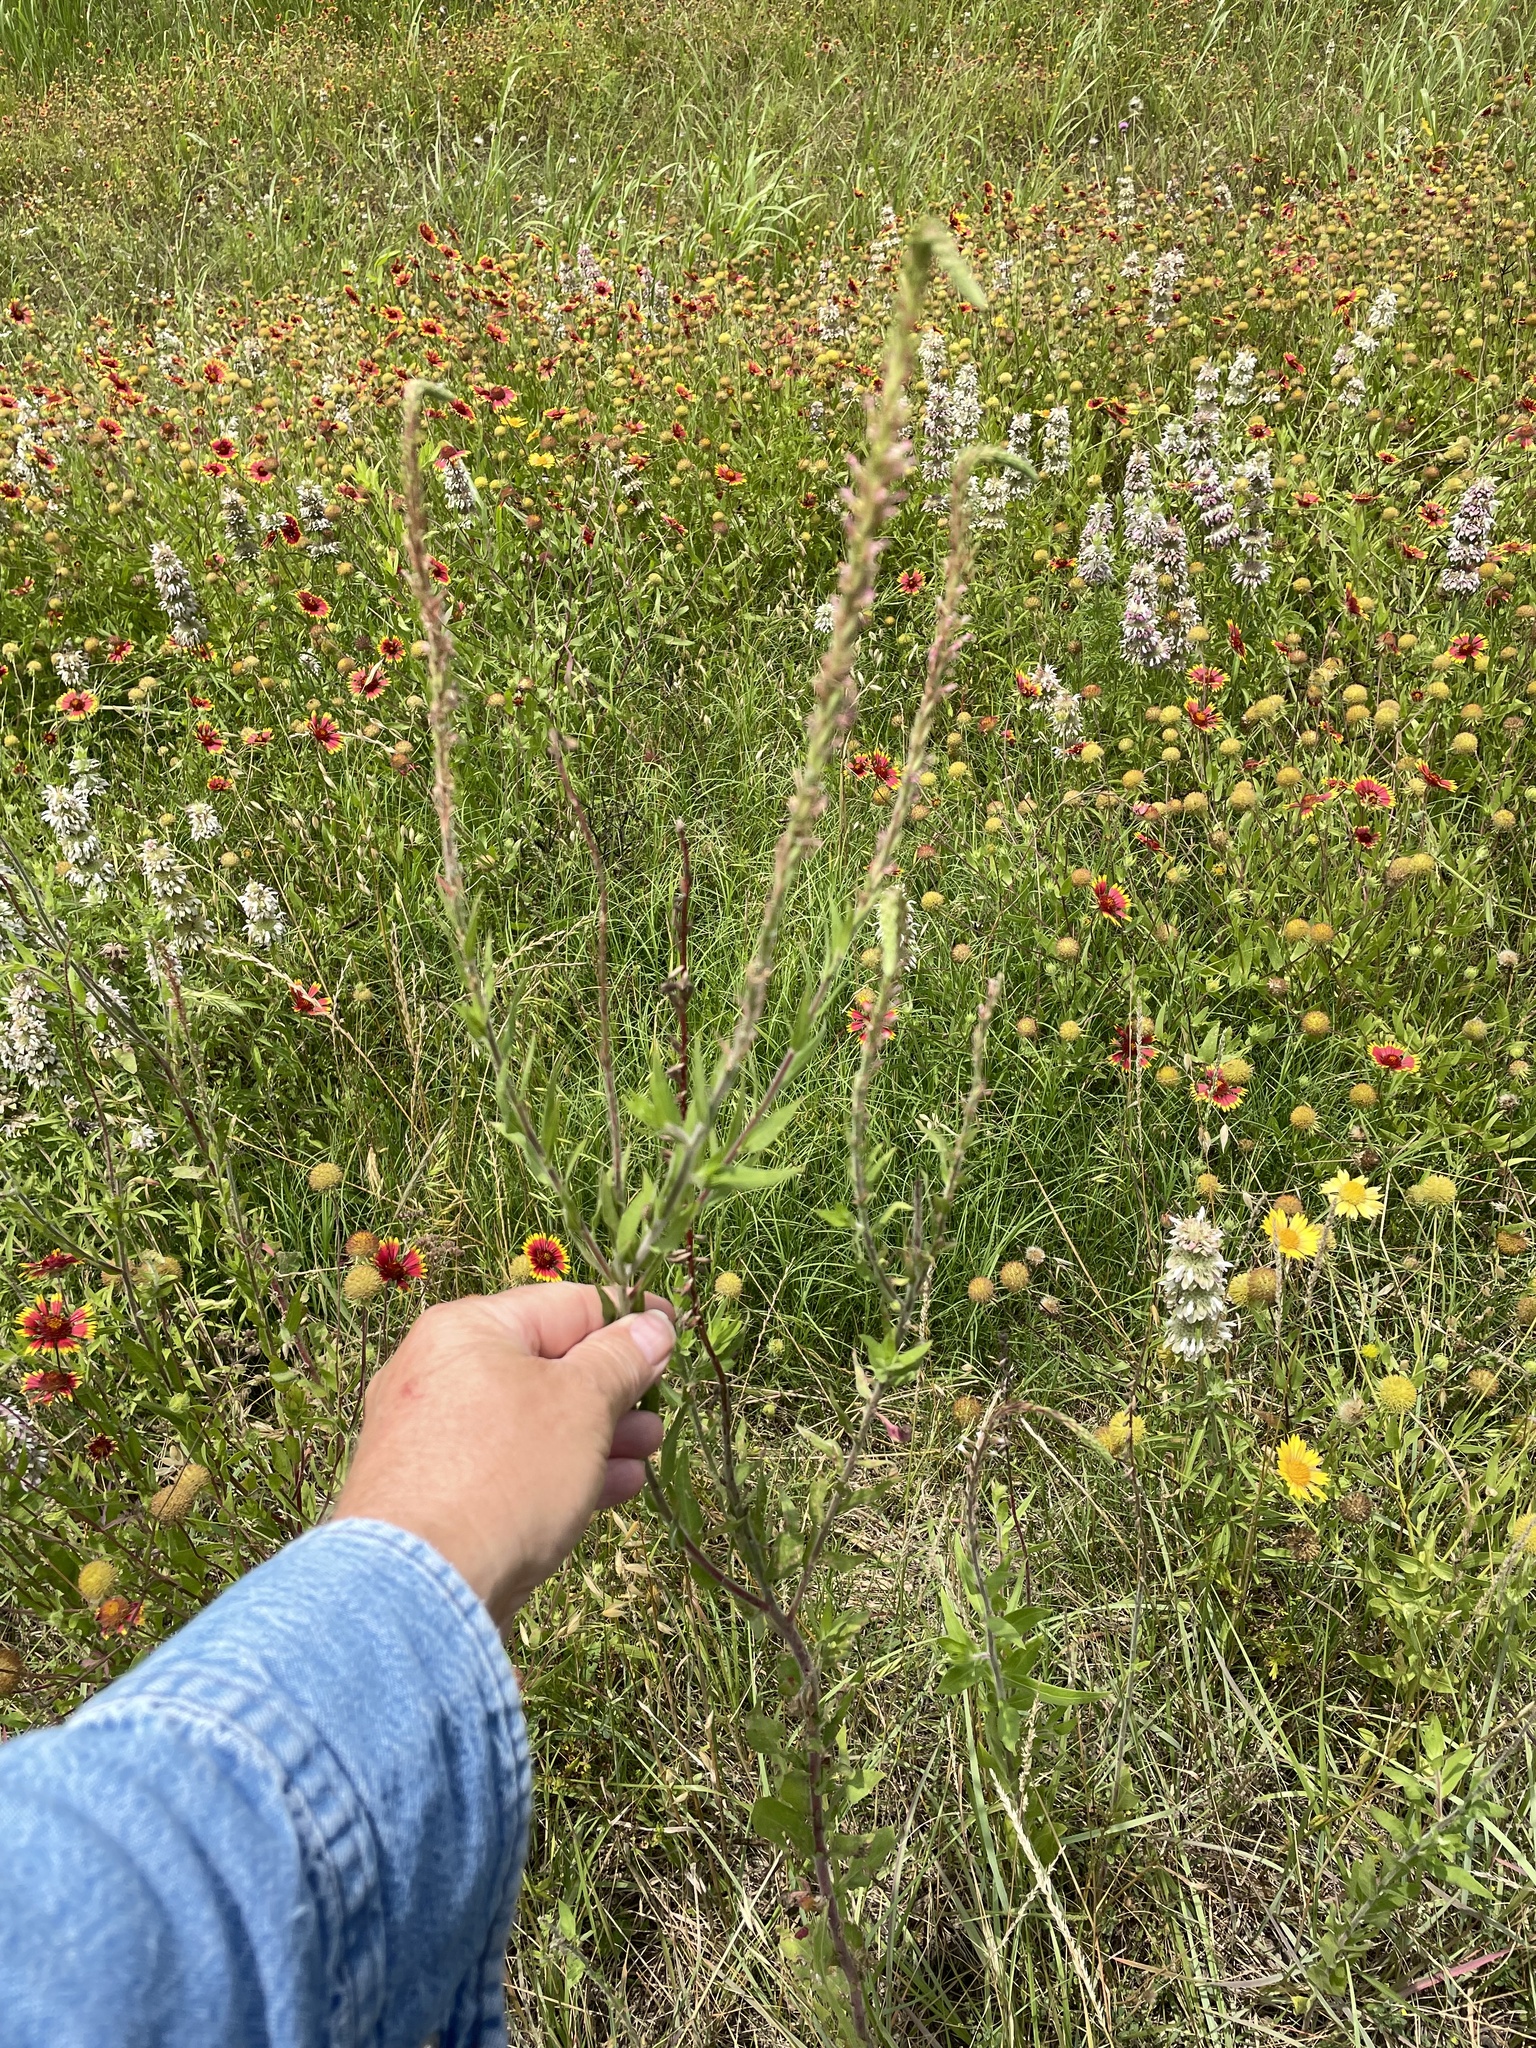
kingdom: Plantae
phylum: Tracheophyta
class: Magnoliopsida
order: Myrtales
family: Onagraceae
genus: Oenothera
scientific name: Oenothera curtiflora
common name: Velvetweed
